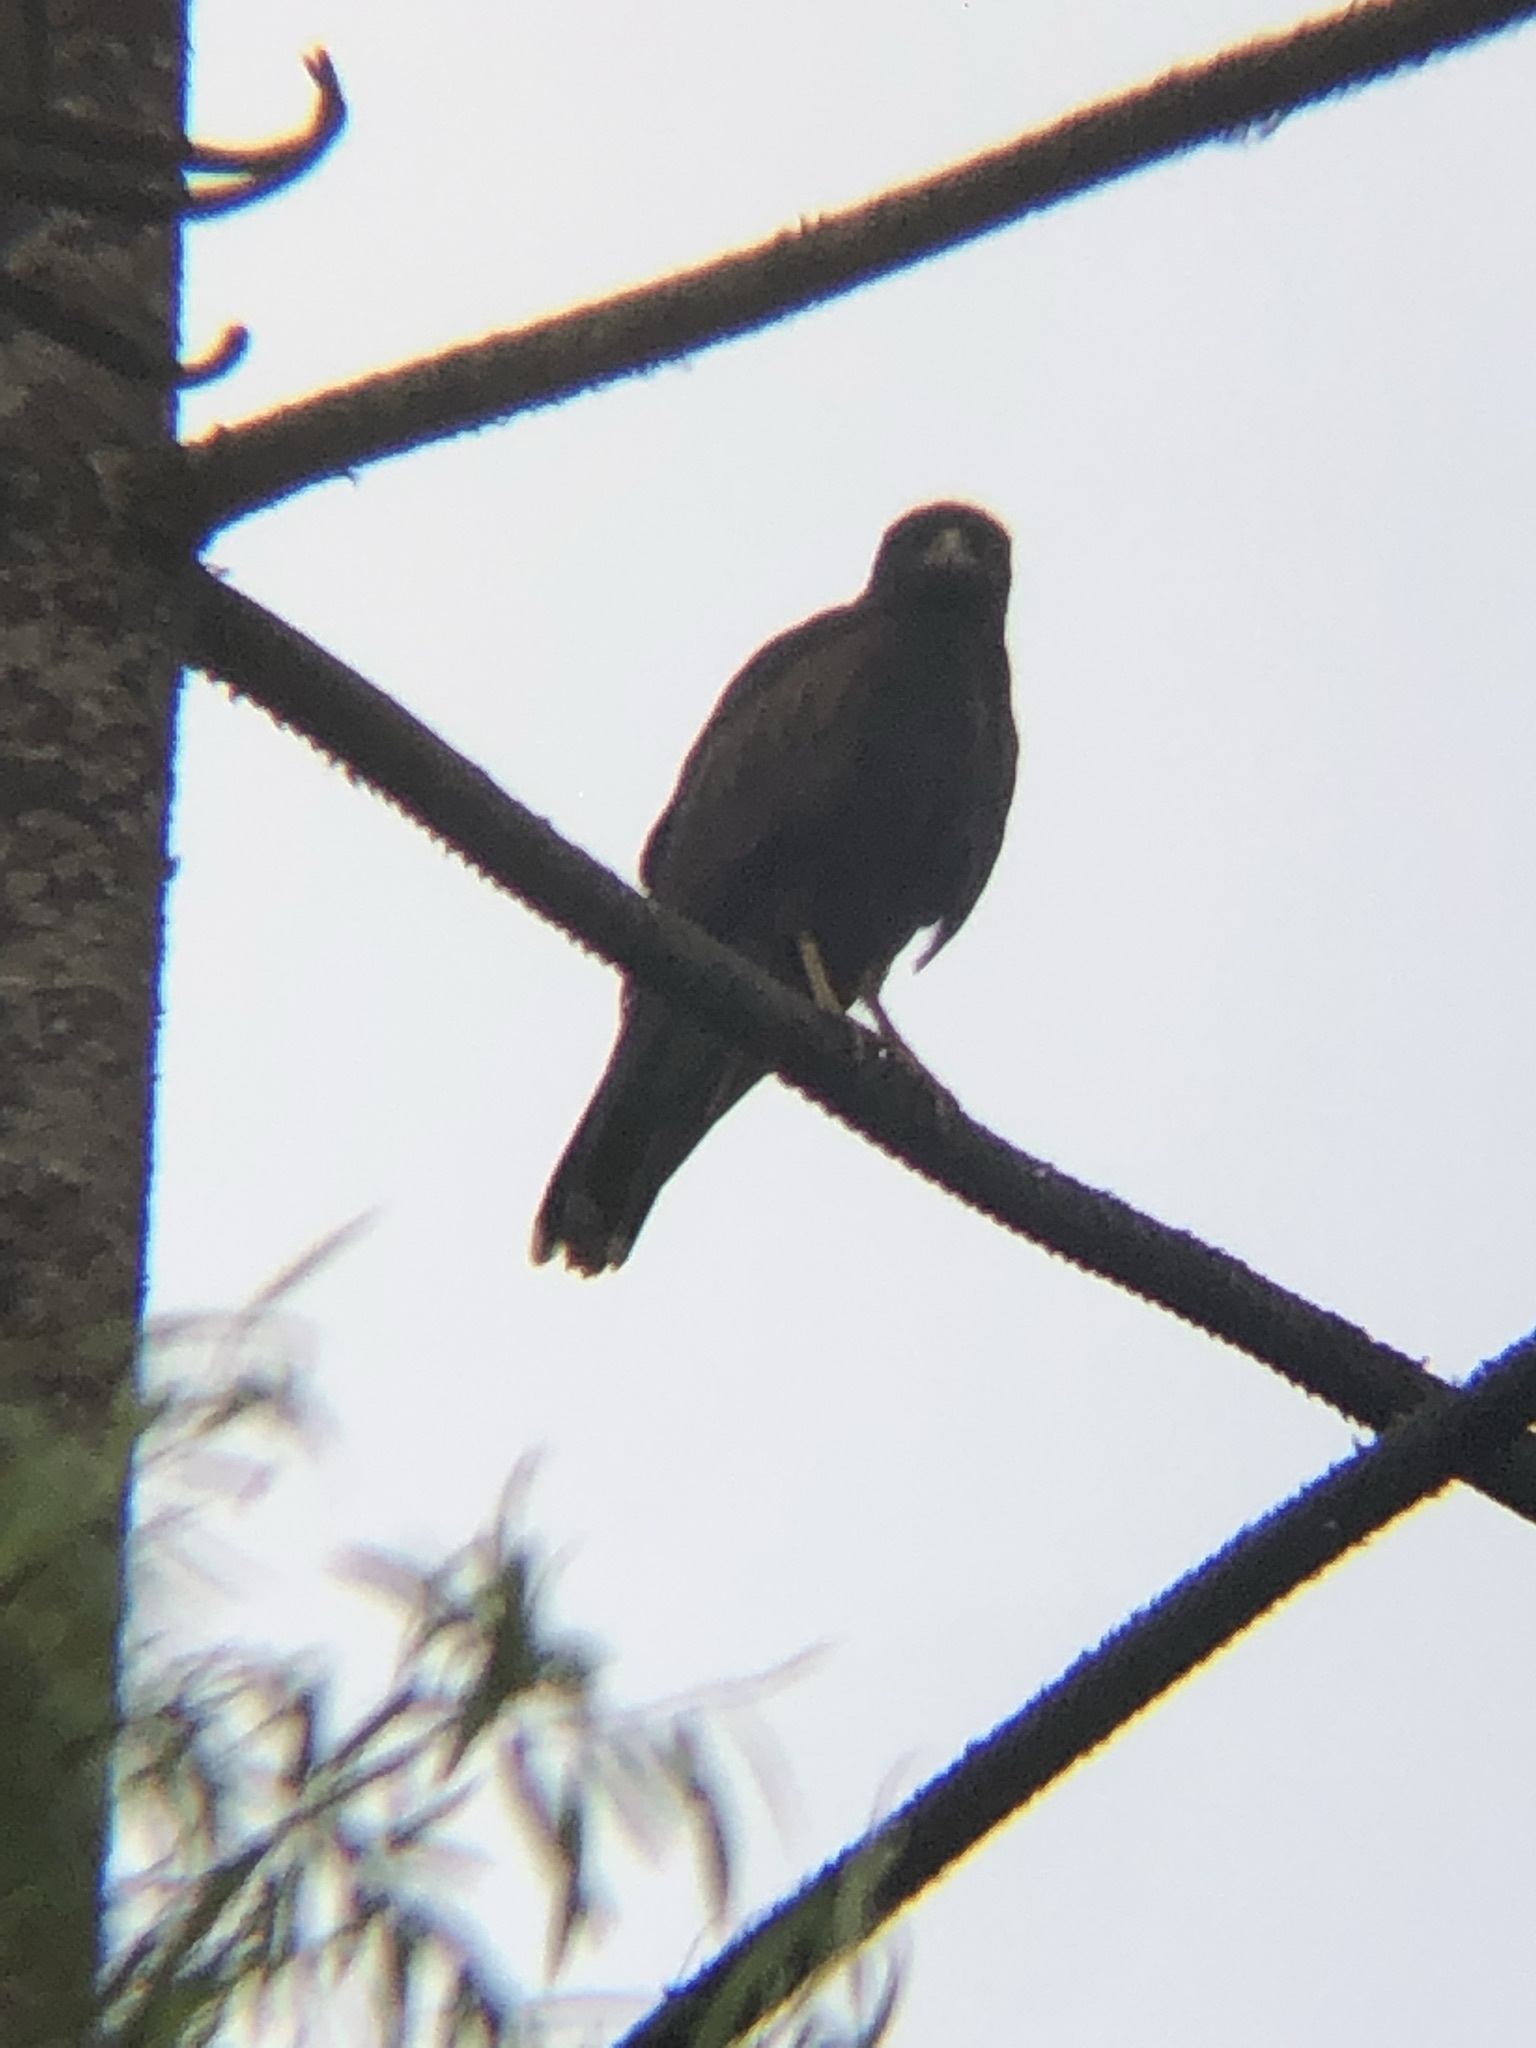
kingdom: Animalia
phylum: Chordata
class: Aves
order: Accipitriformes
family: Accipitridae
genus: Parabuteo
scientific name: Parabuteo unicinctus
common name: Harris's hawk
